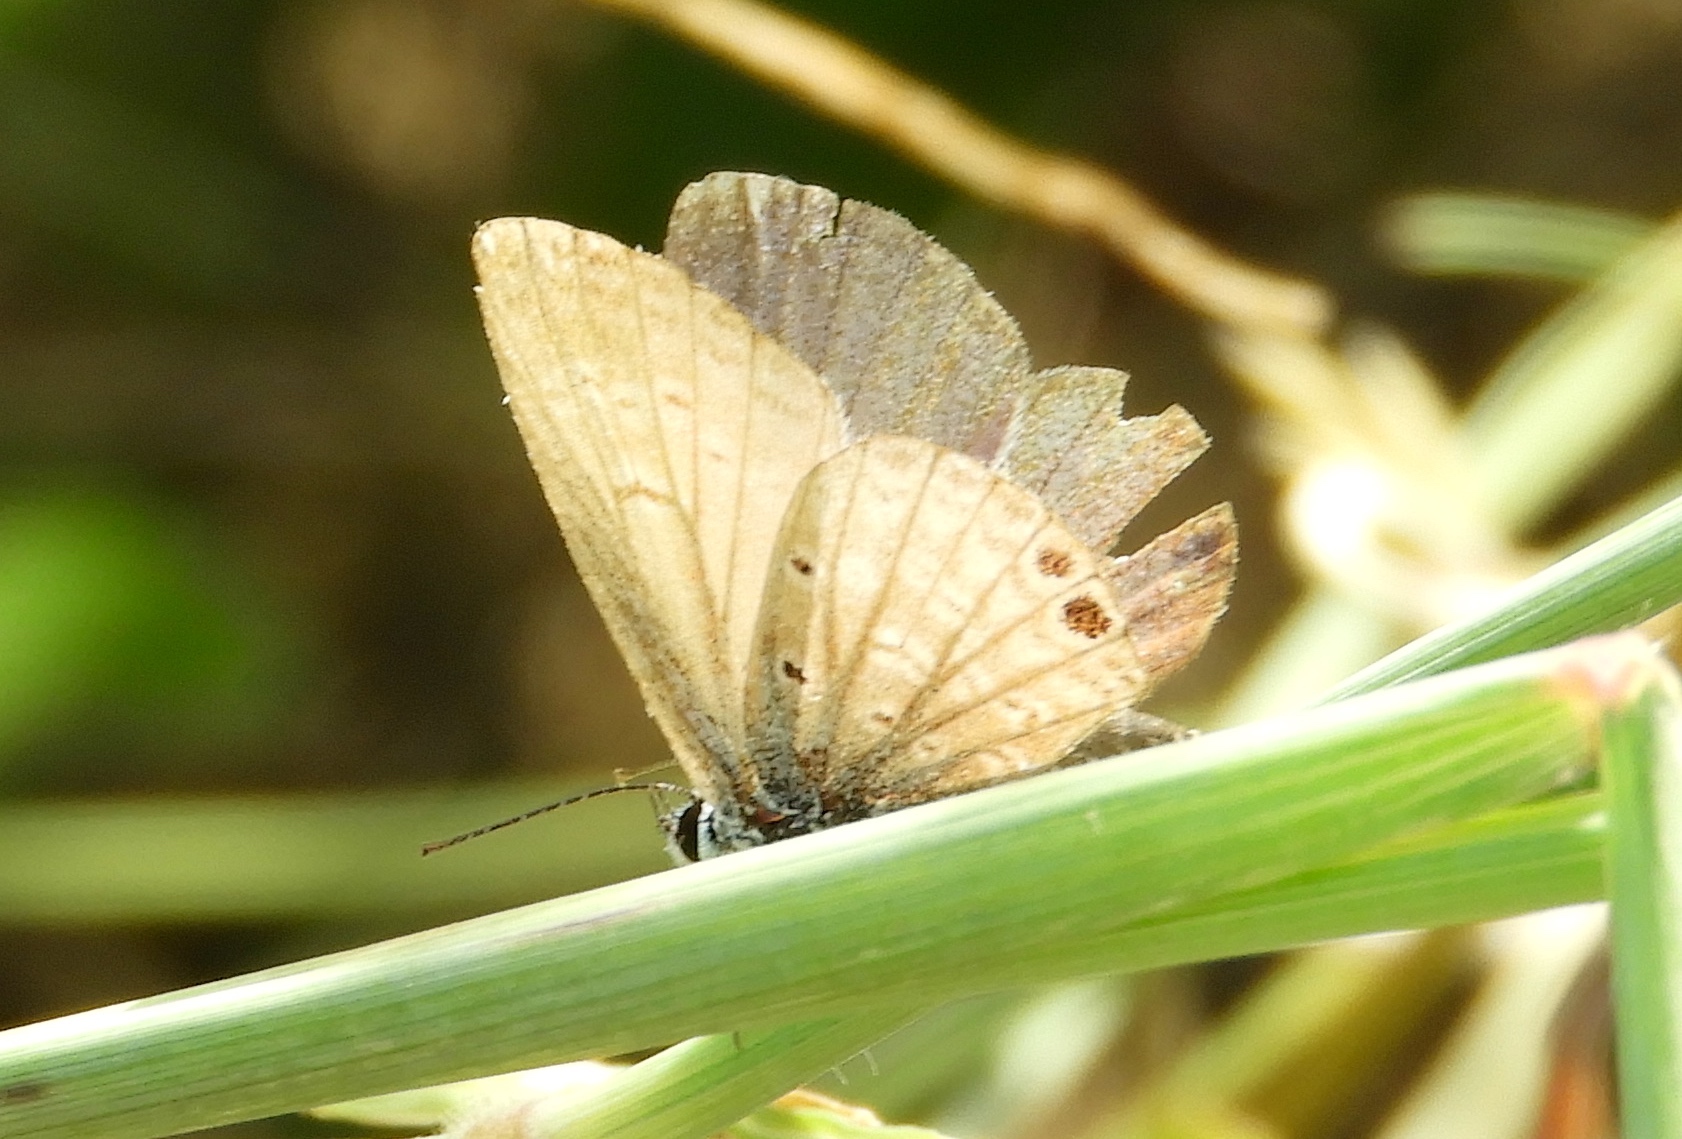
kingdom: Animalia
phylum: Arthropoda
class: Insecta
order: Lepidoptera
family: Lycaenidae
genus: Hemiargus
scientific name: Hemiargus ceraunus
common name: Ceraunus blue
